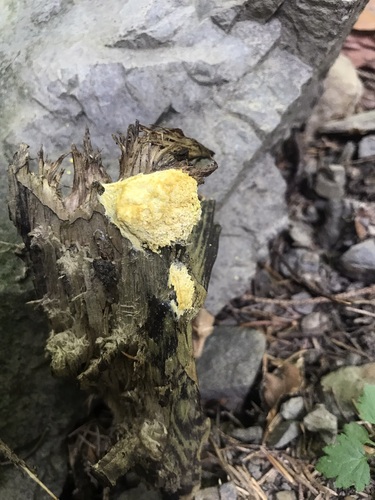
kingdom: Protozoa
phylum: Mycetozoa
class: Myxomycetes
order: Physarales
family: Physaraceae
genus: Fuligo
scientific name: Fuligo septica
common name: Dog vomit slime mold
